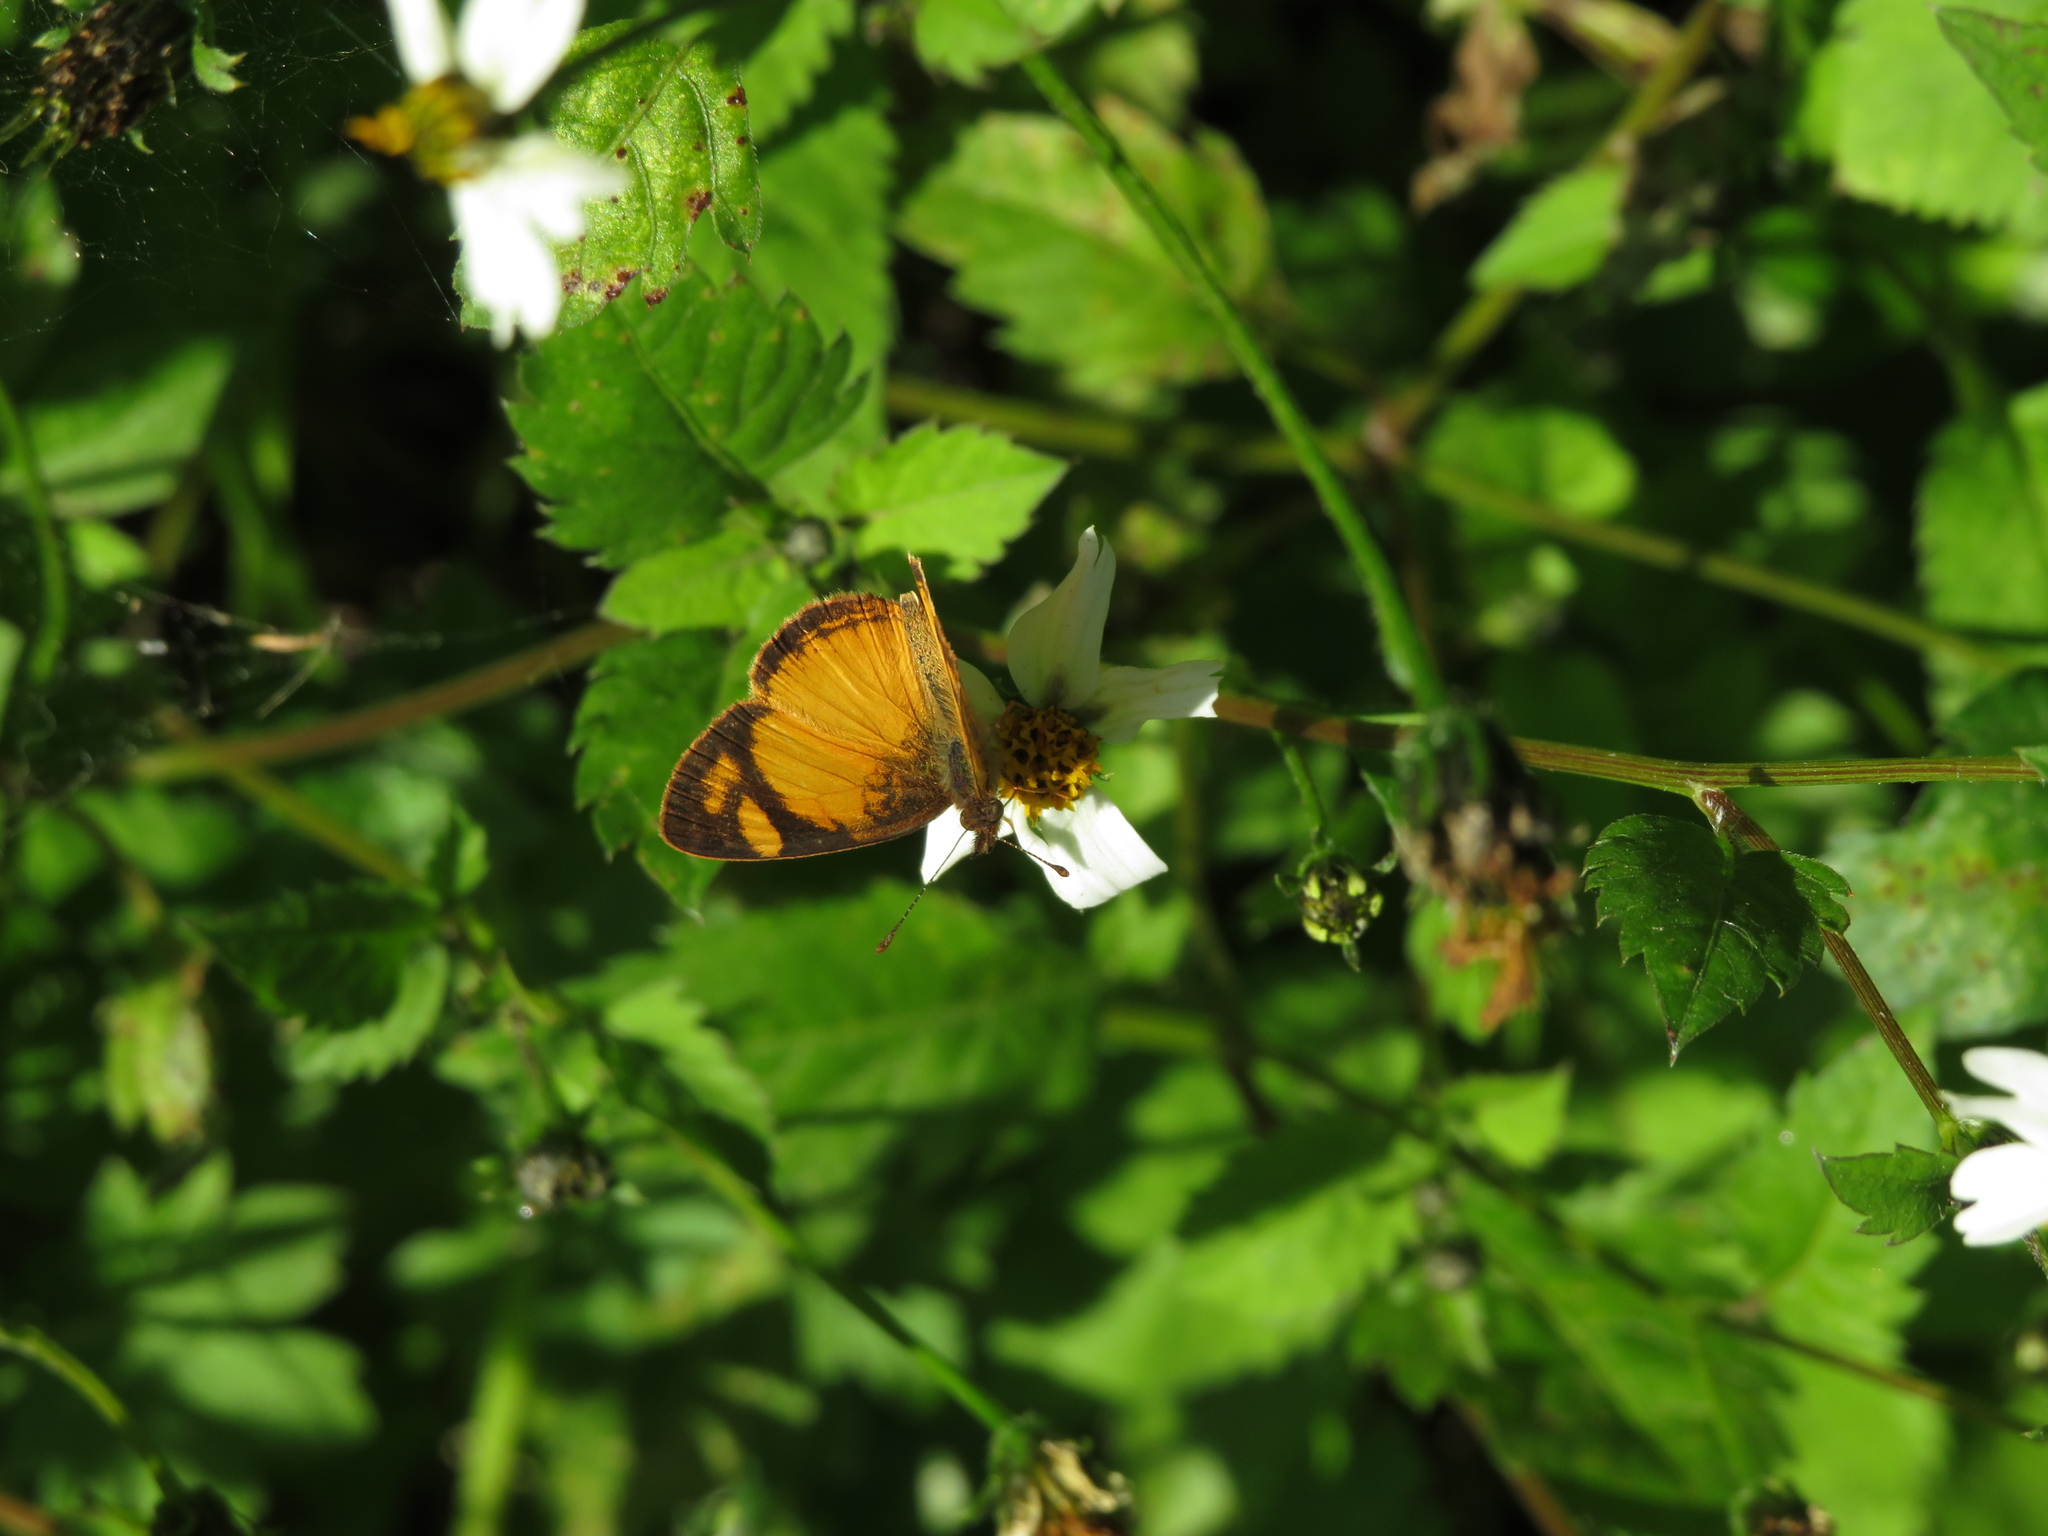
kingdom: Animalia
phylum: Arthropoda
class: Insecta
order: Lepidoptera
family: Nymphalidae
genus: Tegosa
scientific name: Tegosa claudina
